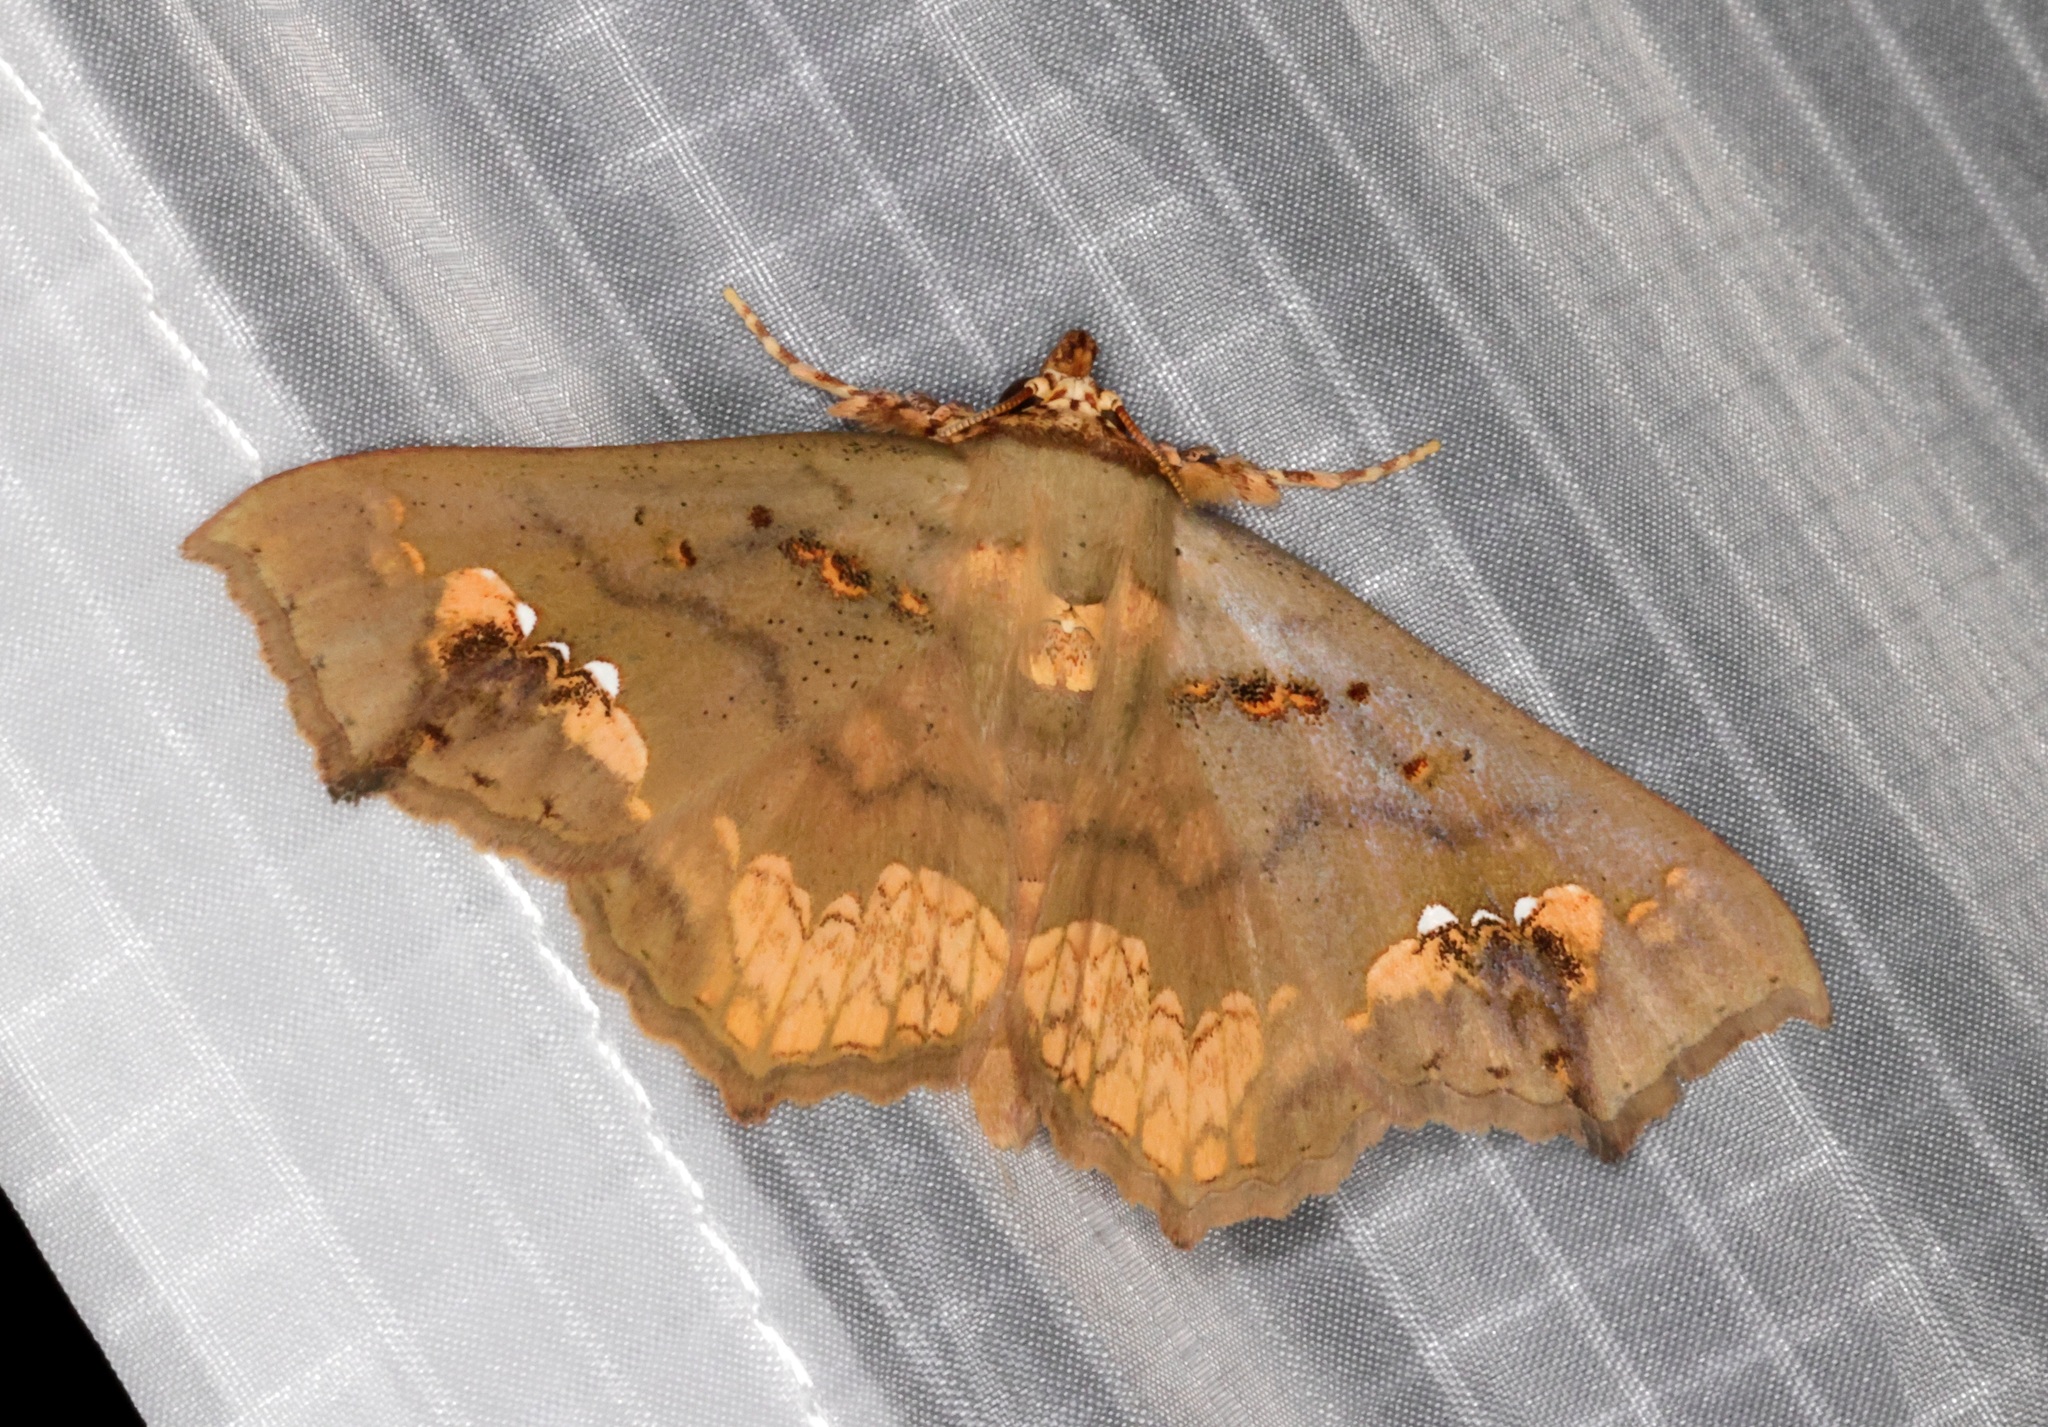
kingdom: Animalia
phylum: Arthropoda
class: Insecta
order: Lepidoptera
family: Erebidae
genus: Lopharthrum
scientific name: Lopharthrum comprimens
